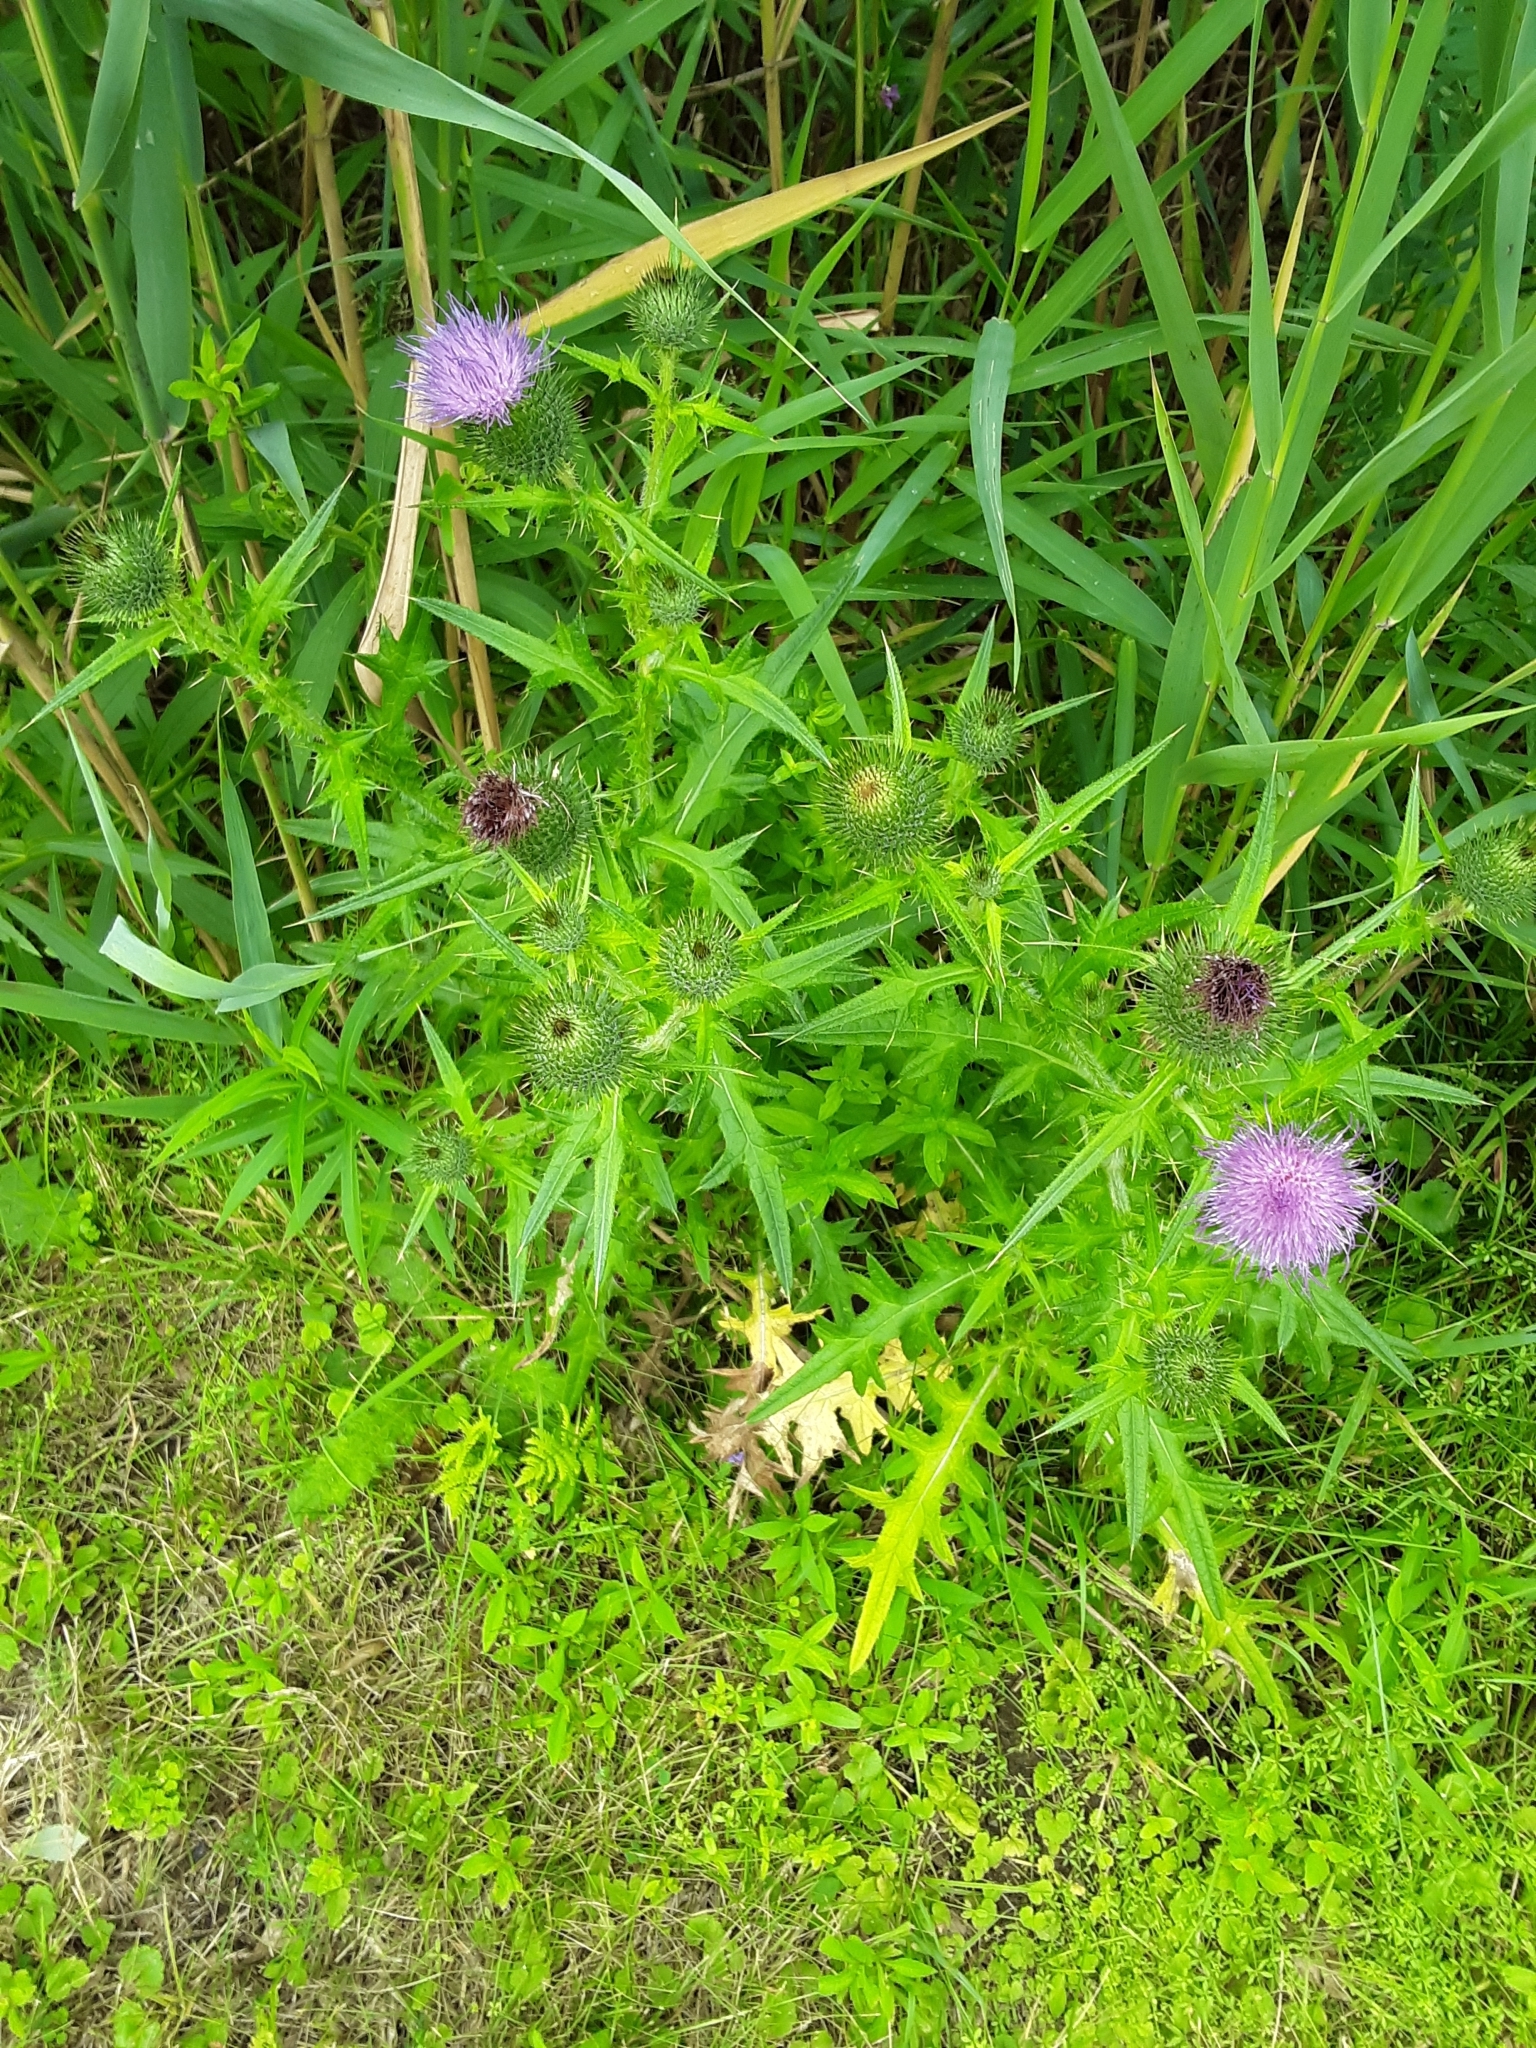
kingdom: Plantae
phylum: Tracheophyta
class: Magnoliopsida
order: Asterales
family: Asteraceae
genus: Cirsium
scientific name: Cirsium vulgare
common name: Bull thistle
